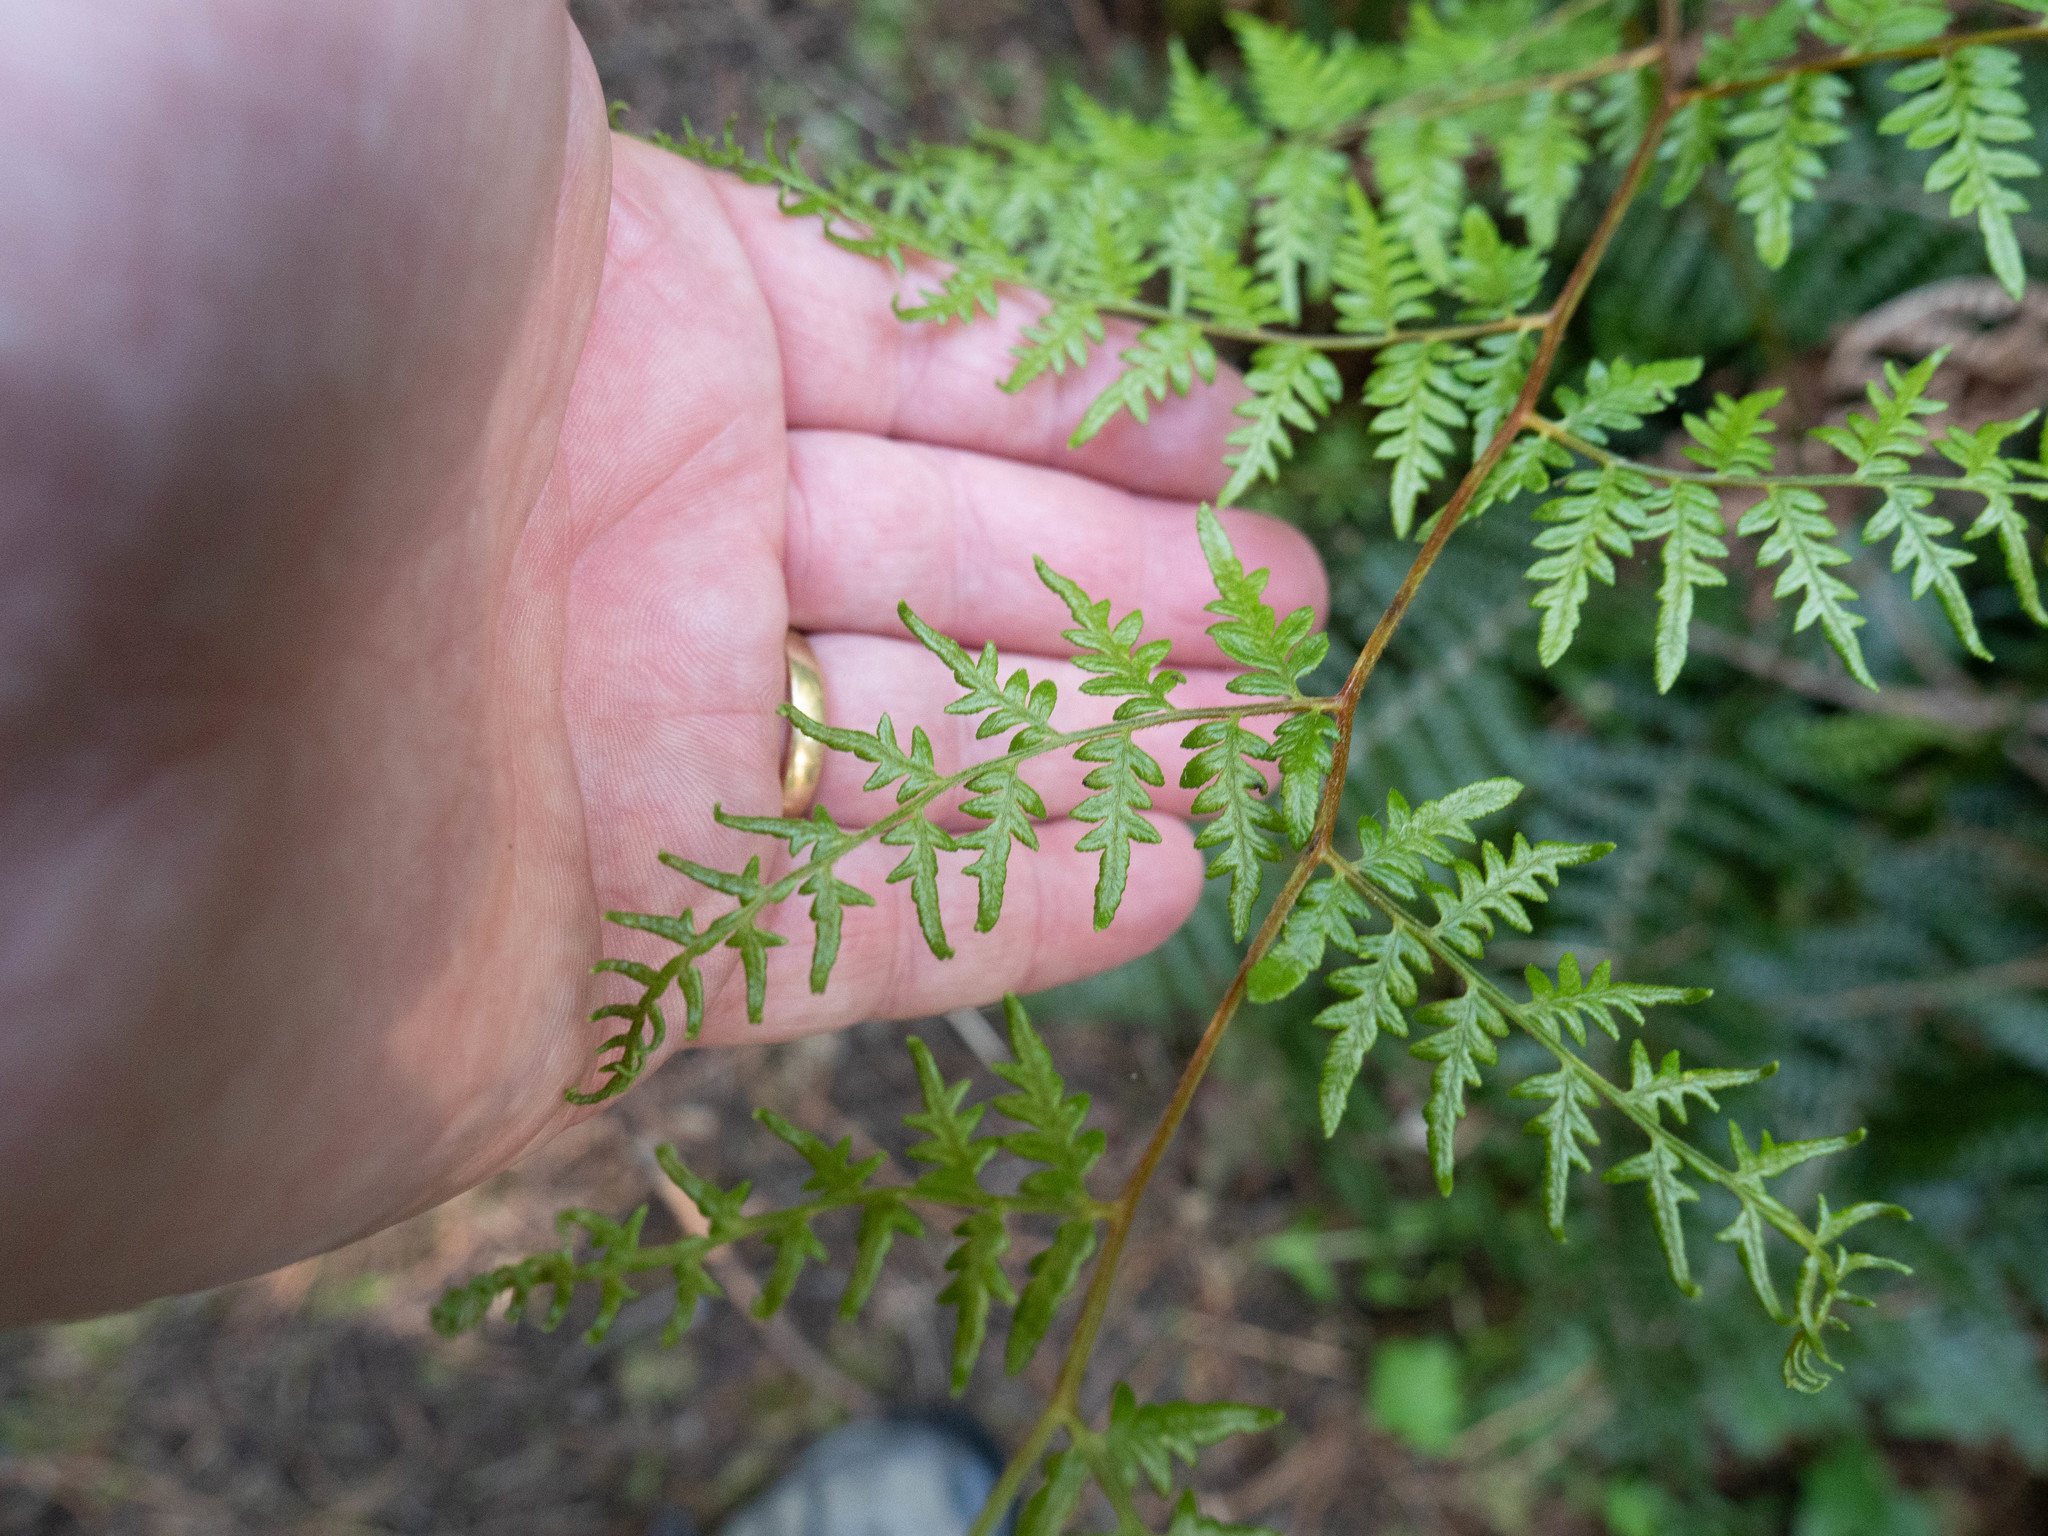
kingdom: Plantae
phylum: Tracheophyta
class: Polypodiopsida
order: Polypodiales
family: Dennstaedtiaceae
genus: Pteridium
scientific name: Pteridium esculentum
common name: Bracken fern
